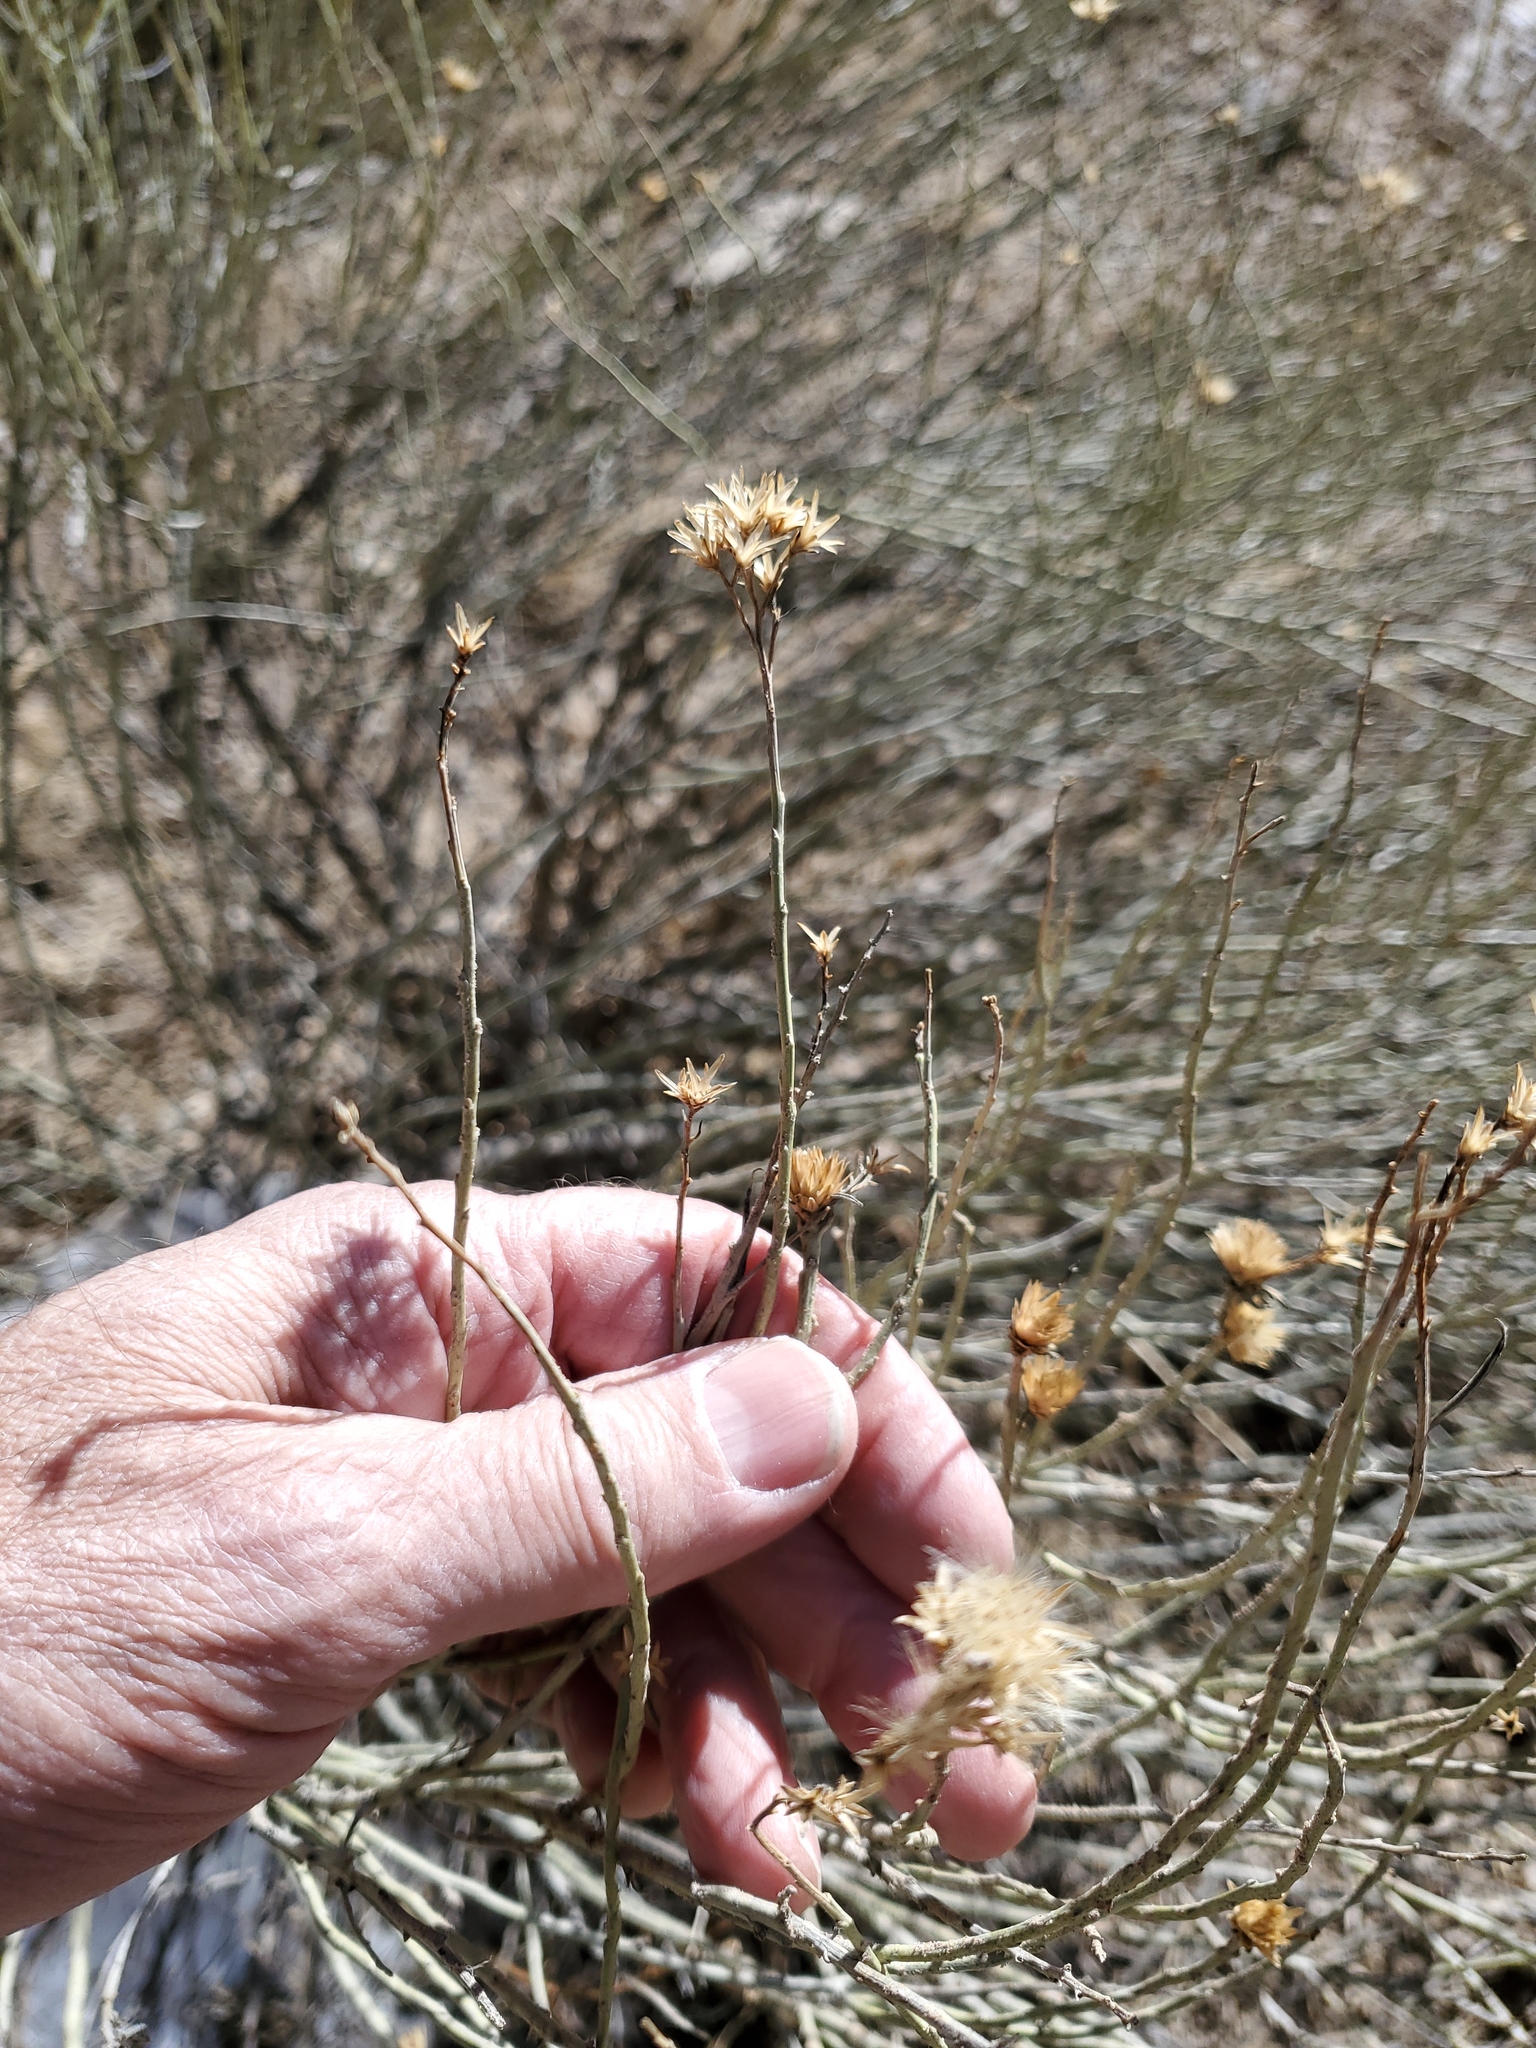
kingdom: Plantae
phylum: Tracheophyta
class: Magnoliopsida
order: Asterales
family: Asteraceae
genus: Ericameria
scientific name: Ericameria nauseosa
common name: Rubber rabbitbrush
